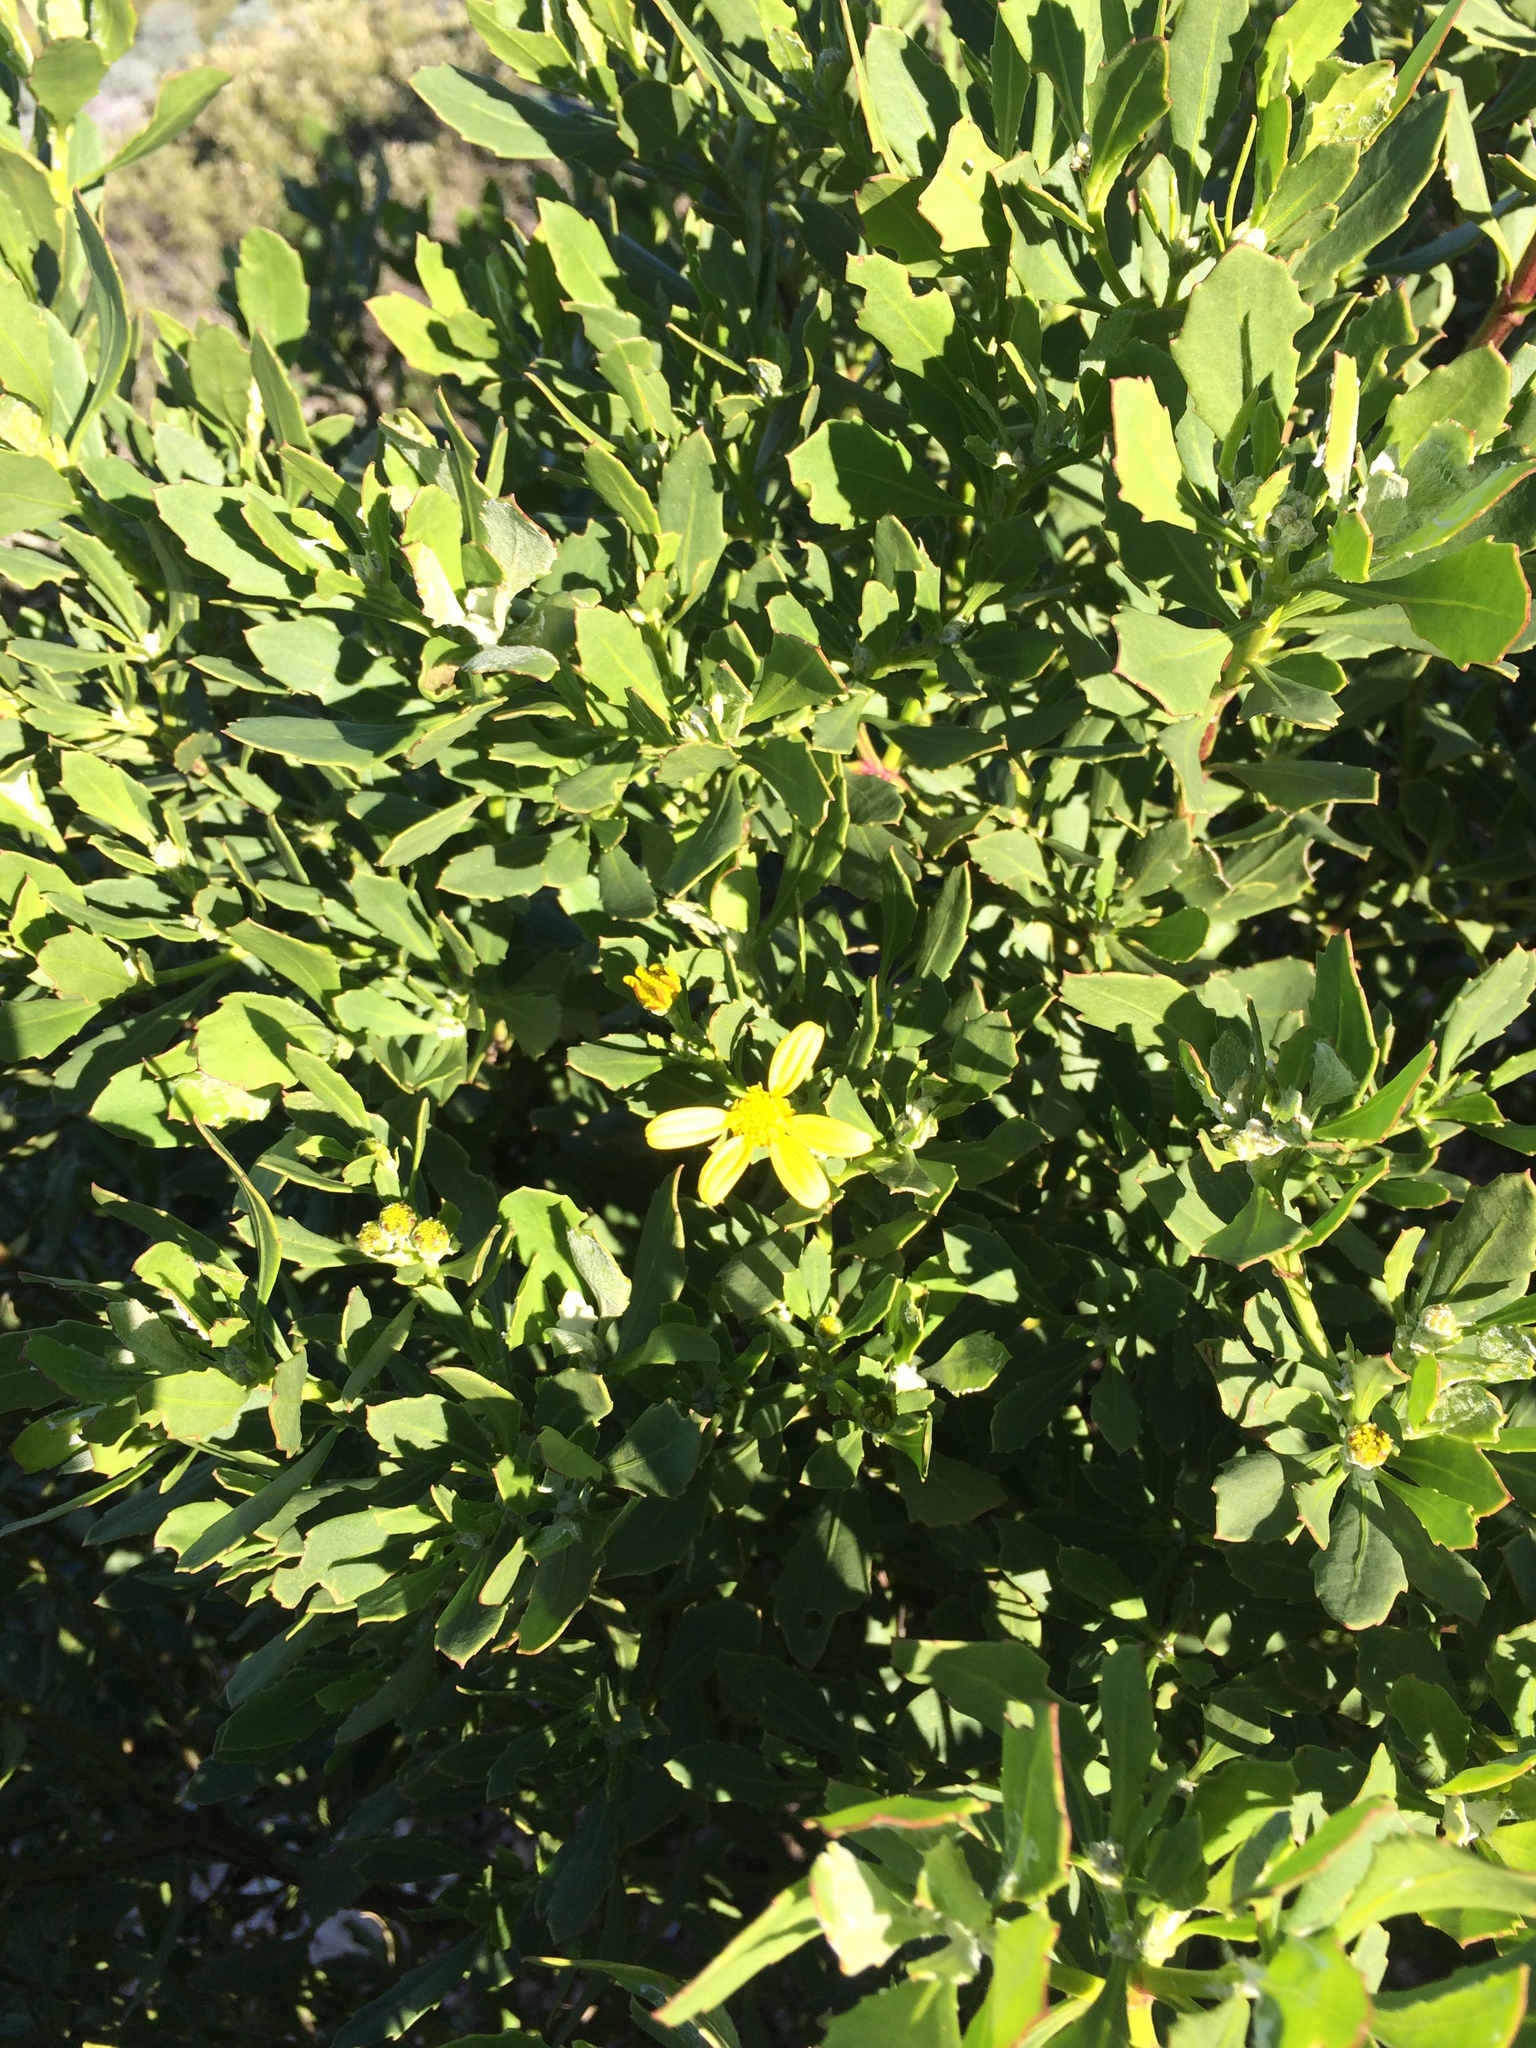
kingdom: Plantae
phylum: Tracheophyta
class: Magnoliopsida
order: Asterales
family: Asteraceae
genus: Osteospermum
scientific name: Osteospermum moniliferum
